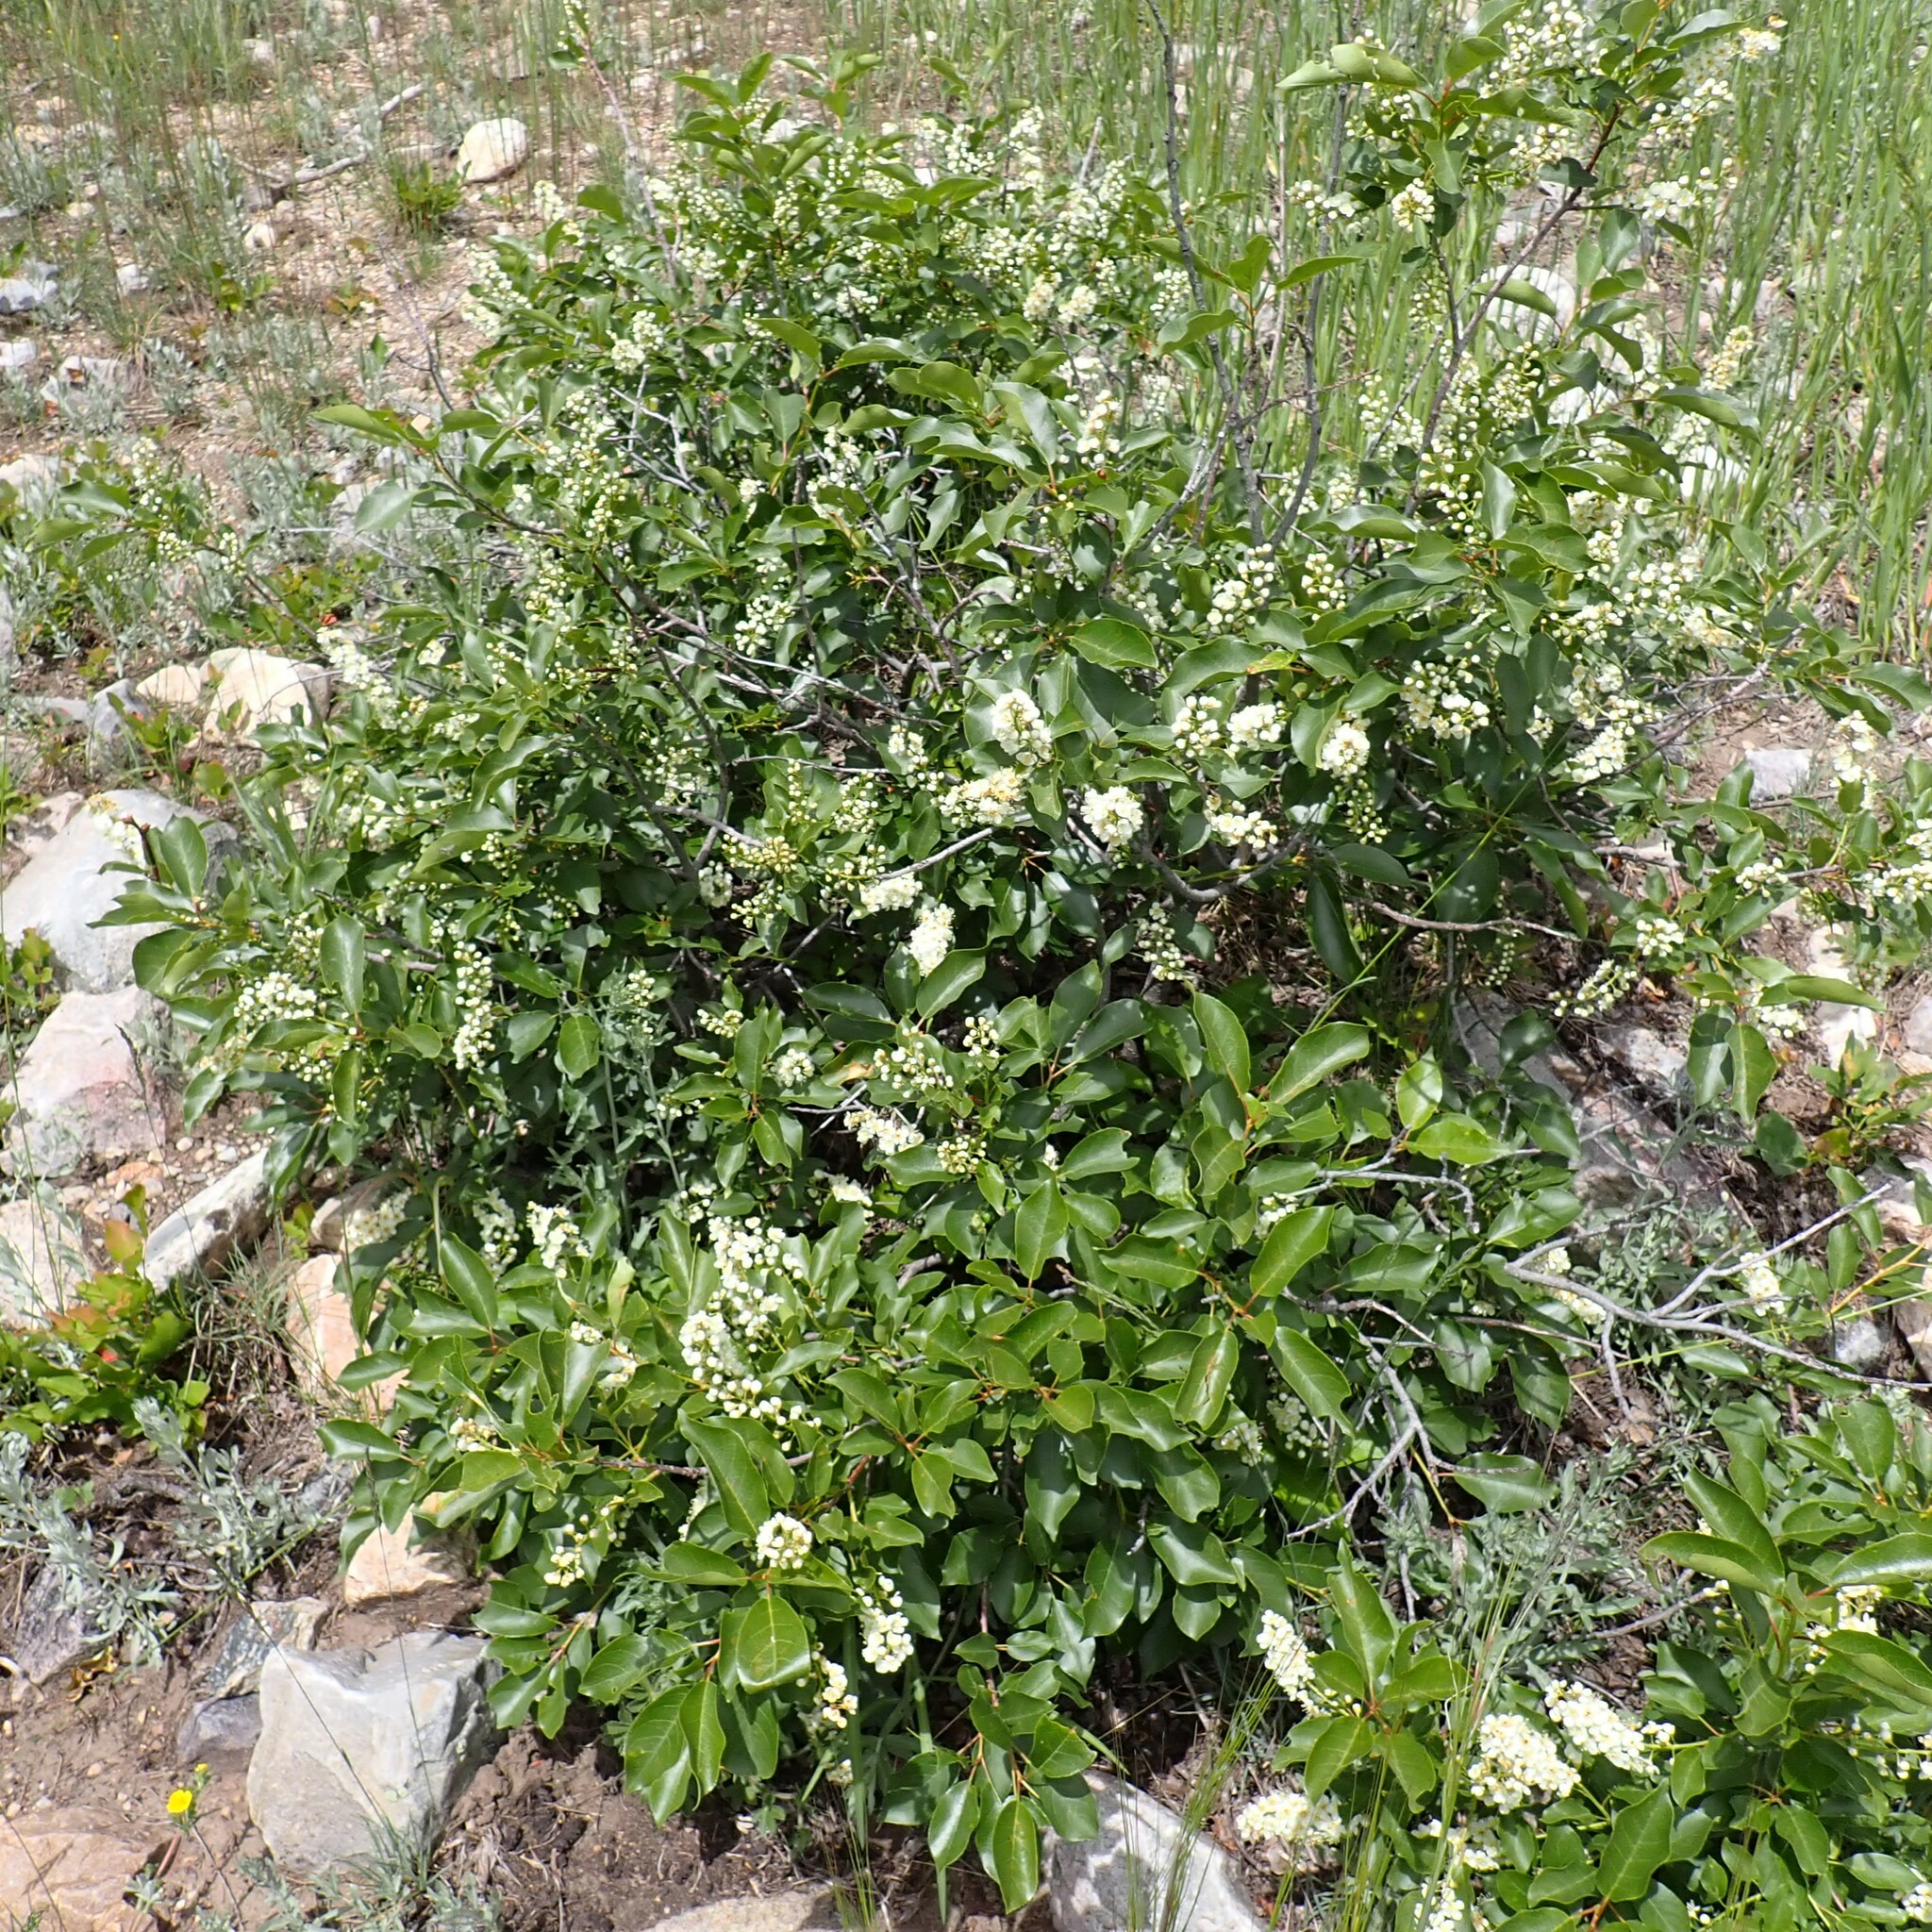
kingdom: Plantae
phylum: Tracheophyta
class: Magnoliopsida
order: Rosales
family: Rosaceae
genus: Prunus
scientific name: Prunus virginiana
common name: Chokecherry
